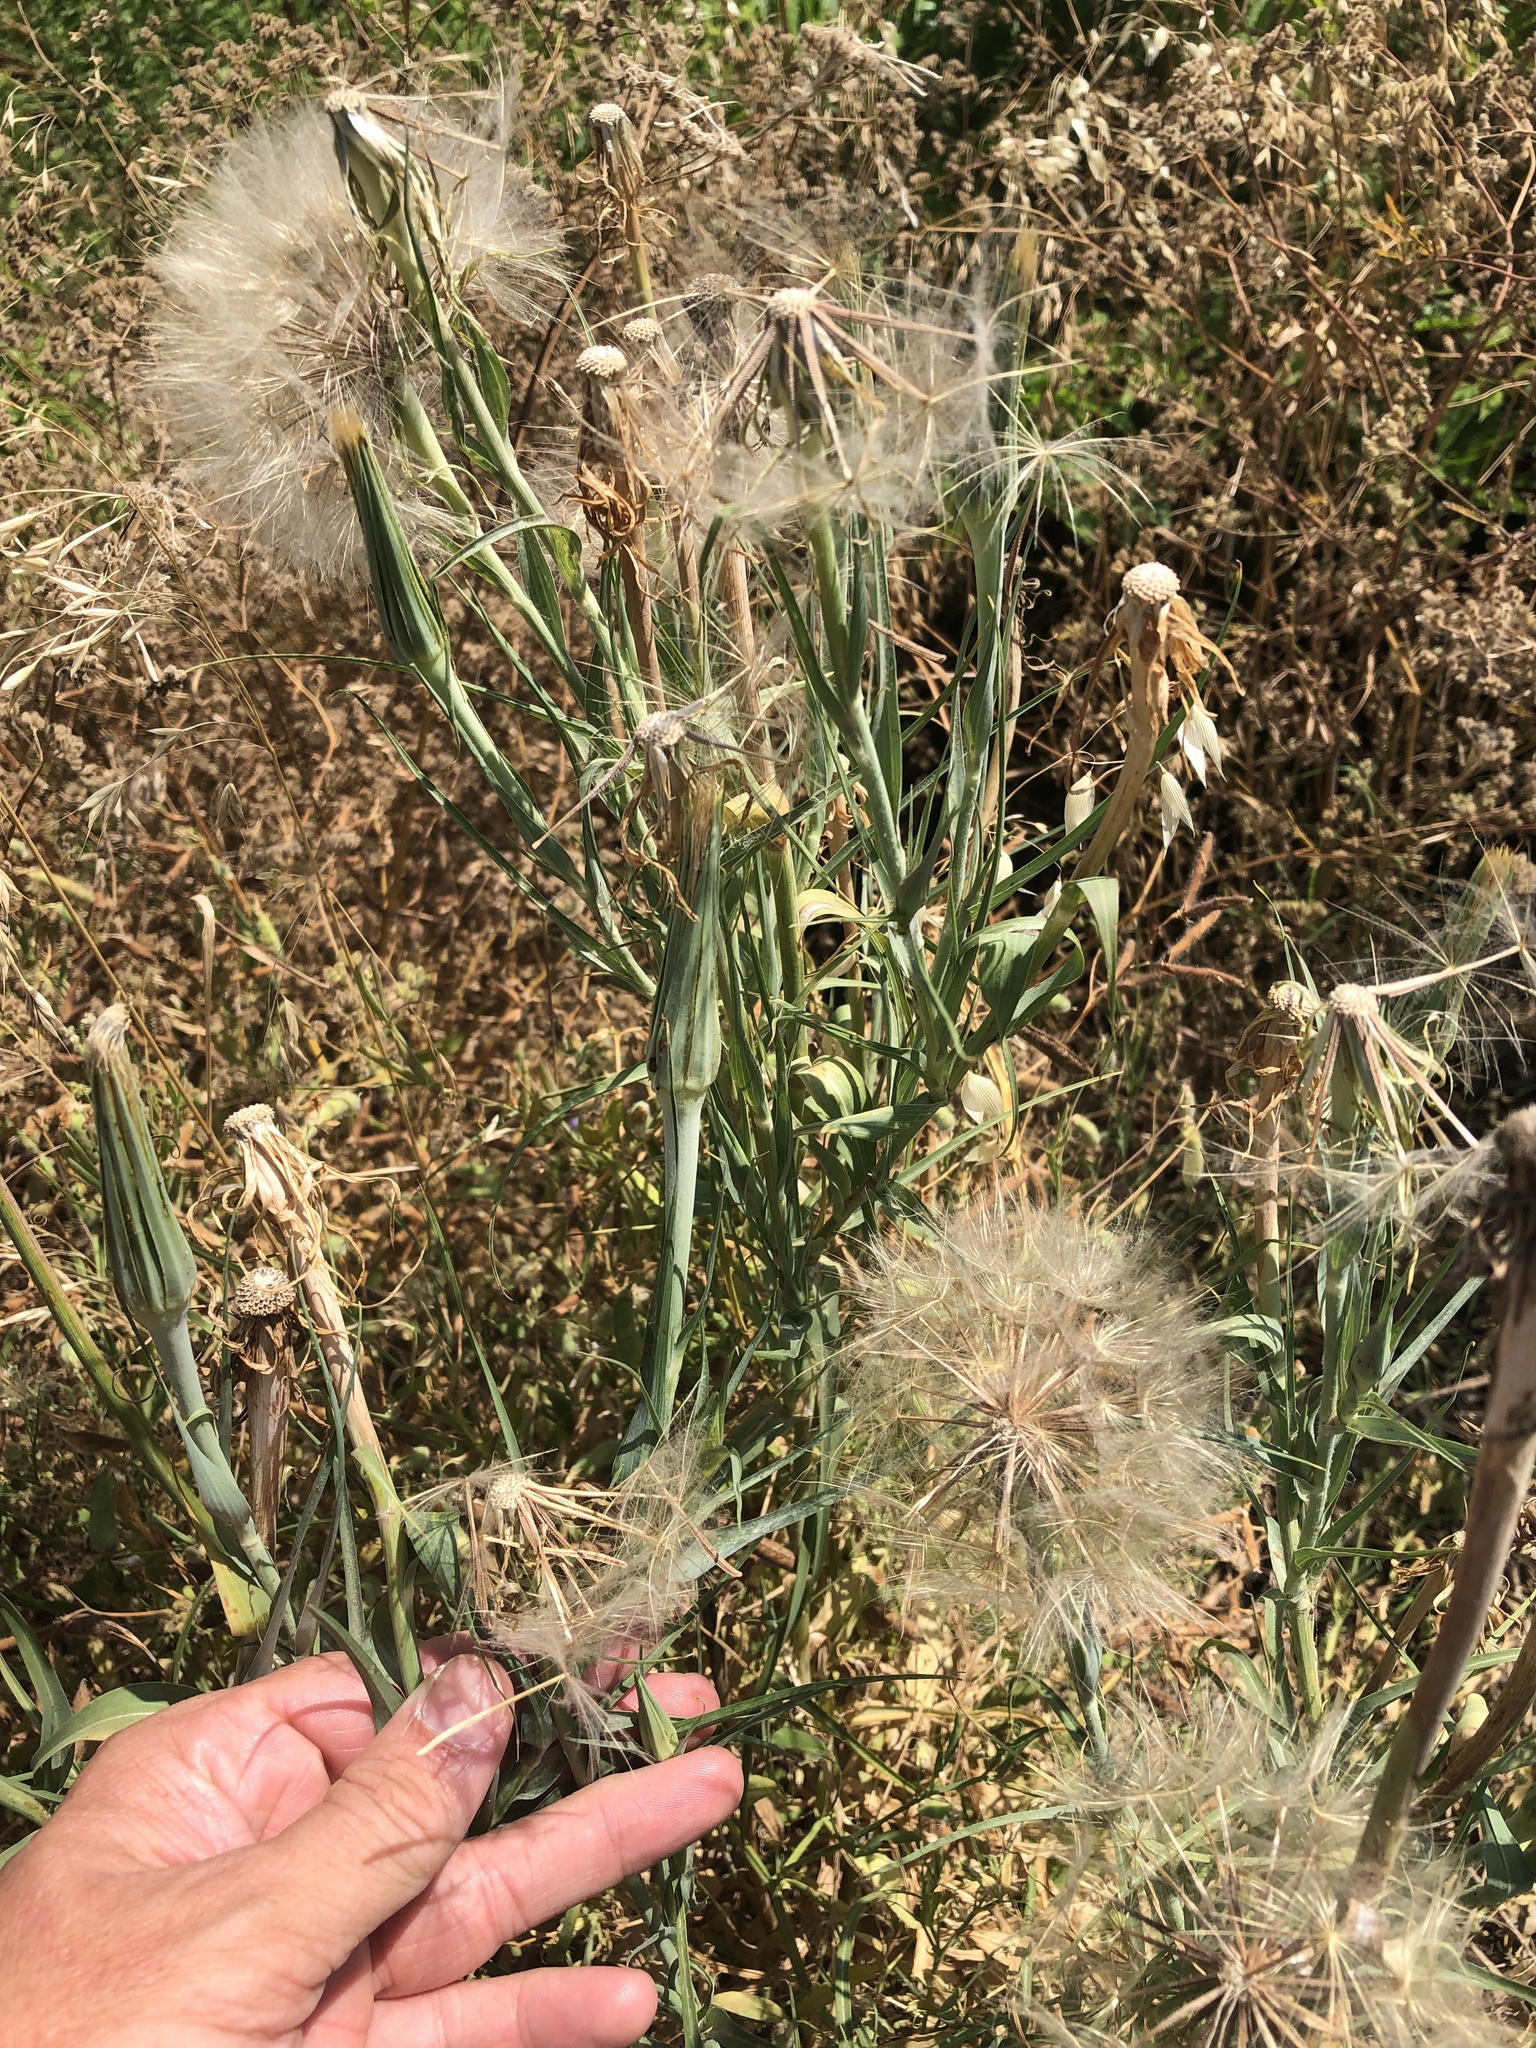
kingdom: Plantae
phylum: Tracheophyta
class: Magnoliopsida
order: Asterales
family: Asteraceae
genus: Tragopogon
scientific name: Tragopogon dubius
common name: Yellow salsify
